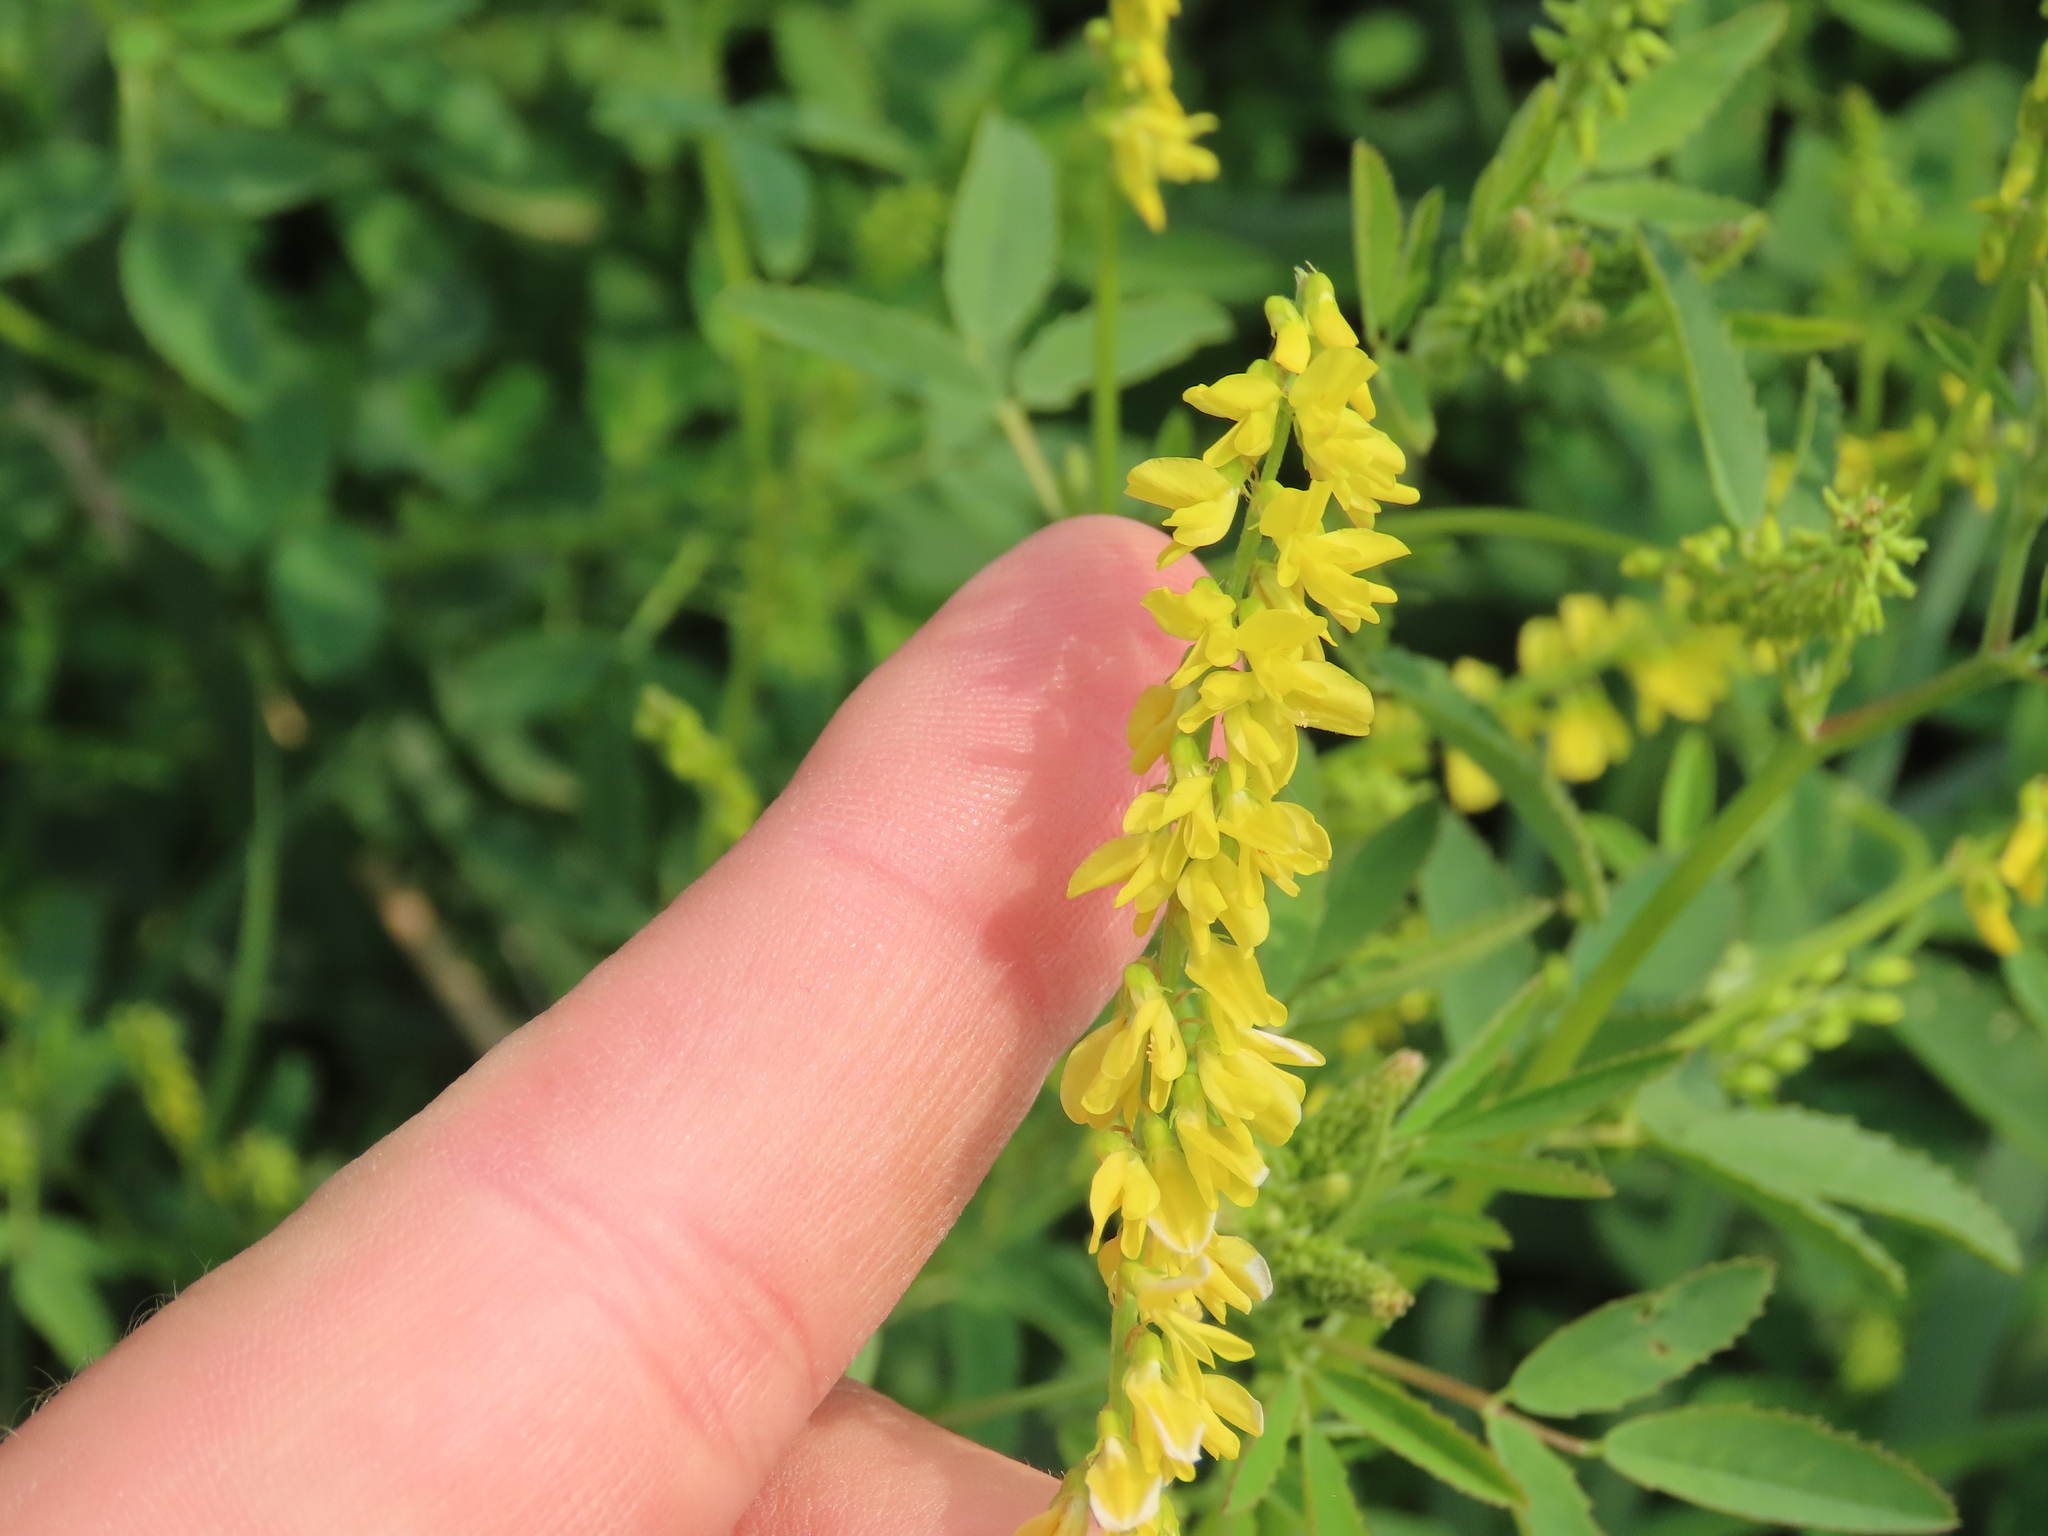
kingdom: Plantae
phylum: Tracheophyta
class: Magnoliopsida
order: Fabales
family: Fabaceae
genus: Melilotus
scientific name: Melilotus officinalis
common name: Sweetclover
